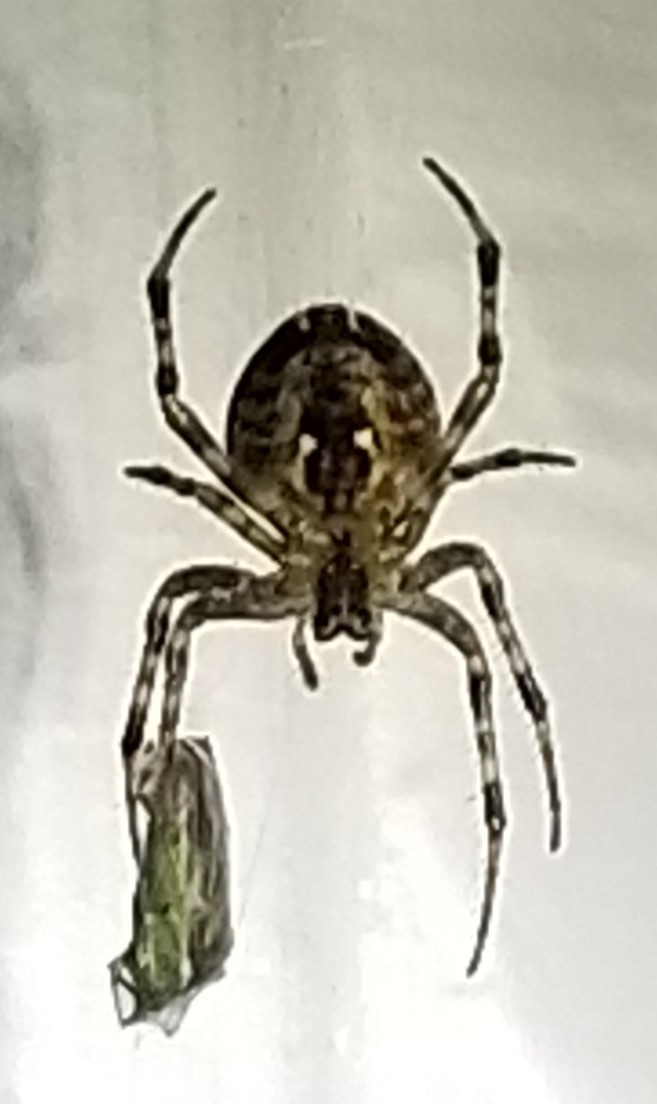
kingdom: Animalia
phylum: Arthropoda
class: Arachnida
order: Araneae
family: Araneidae
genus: Araneus
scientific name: Araneus diadematus
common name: Cross orbweaver
